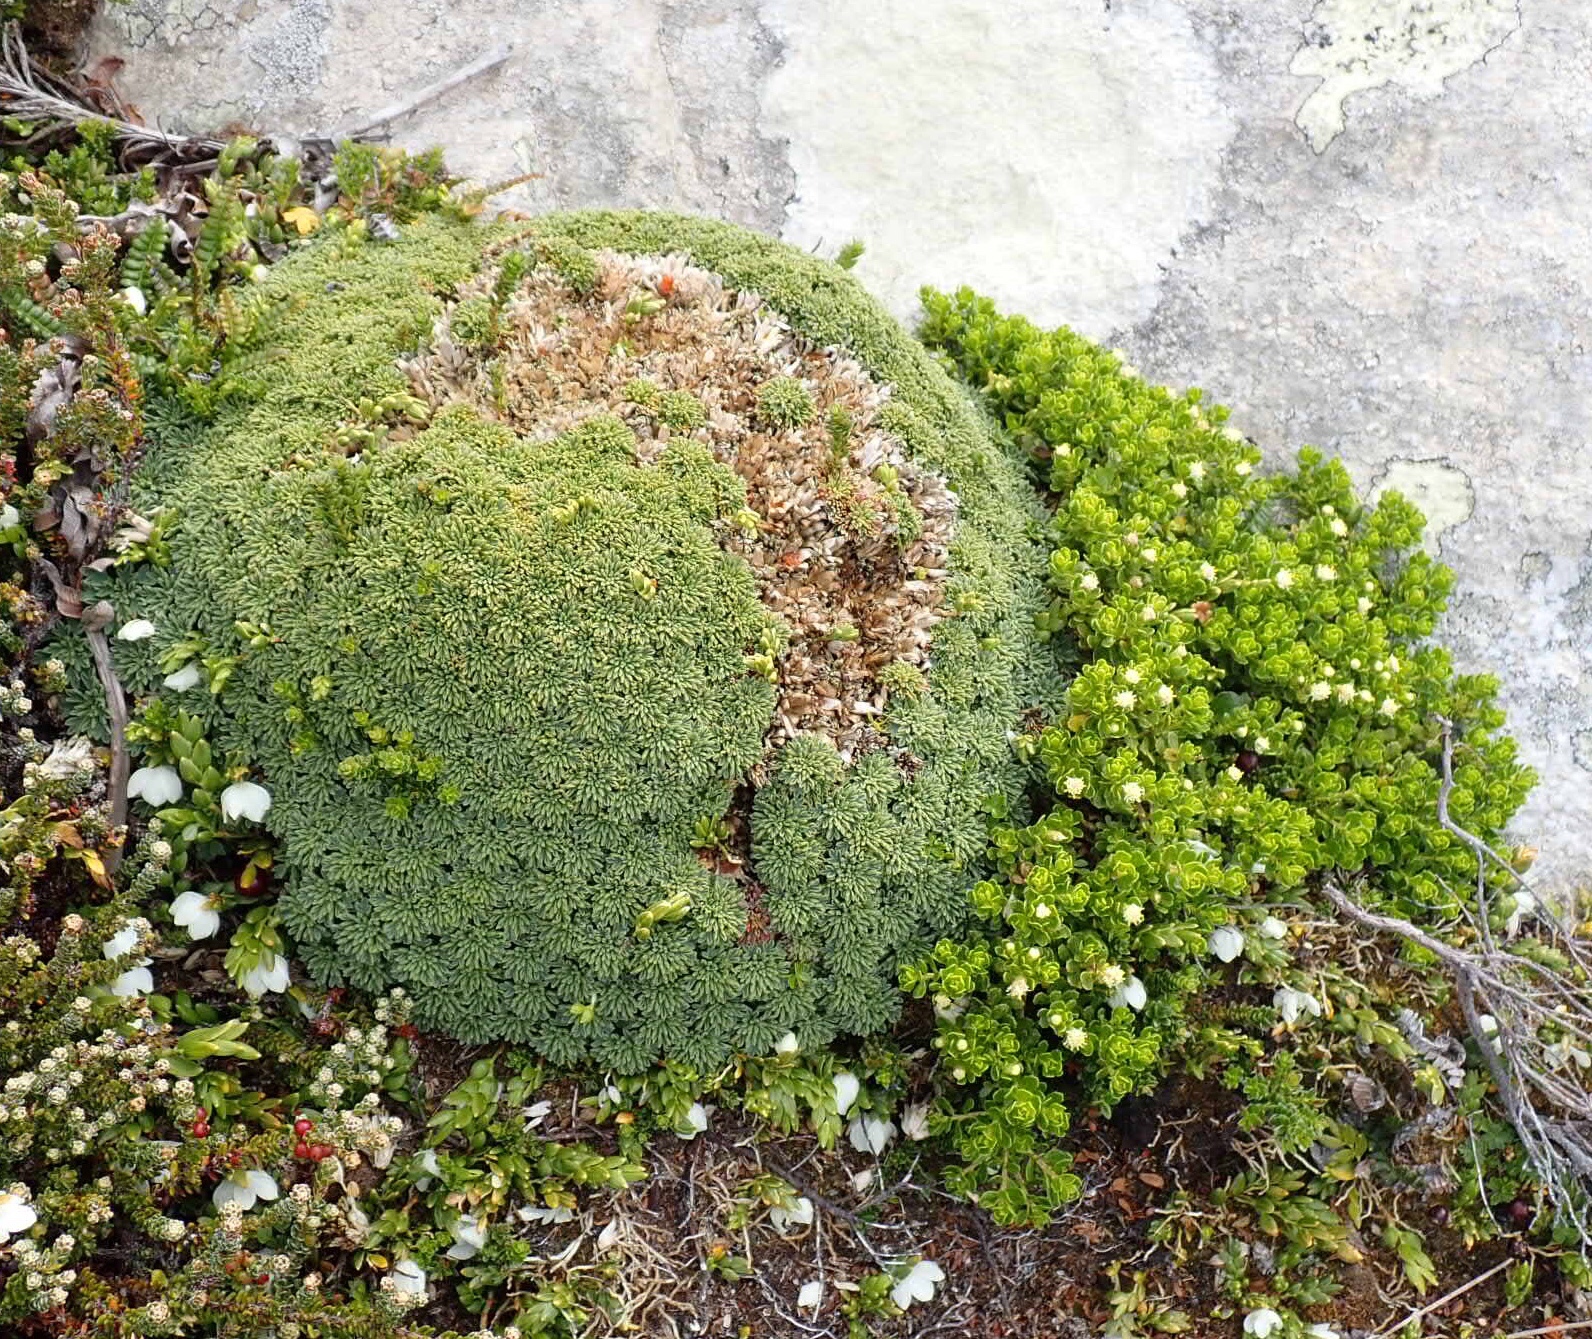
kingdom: Plantae
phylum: Tracheophyta
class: Magnoliopsida
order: Apiales
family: Apiaceae
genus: Bolax
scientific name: Bolax gummifera
